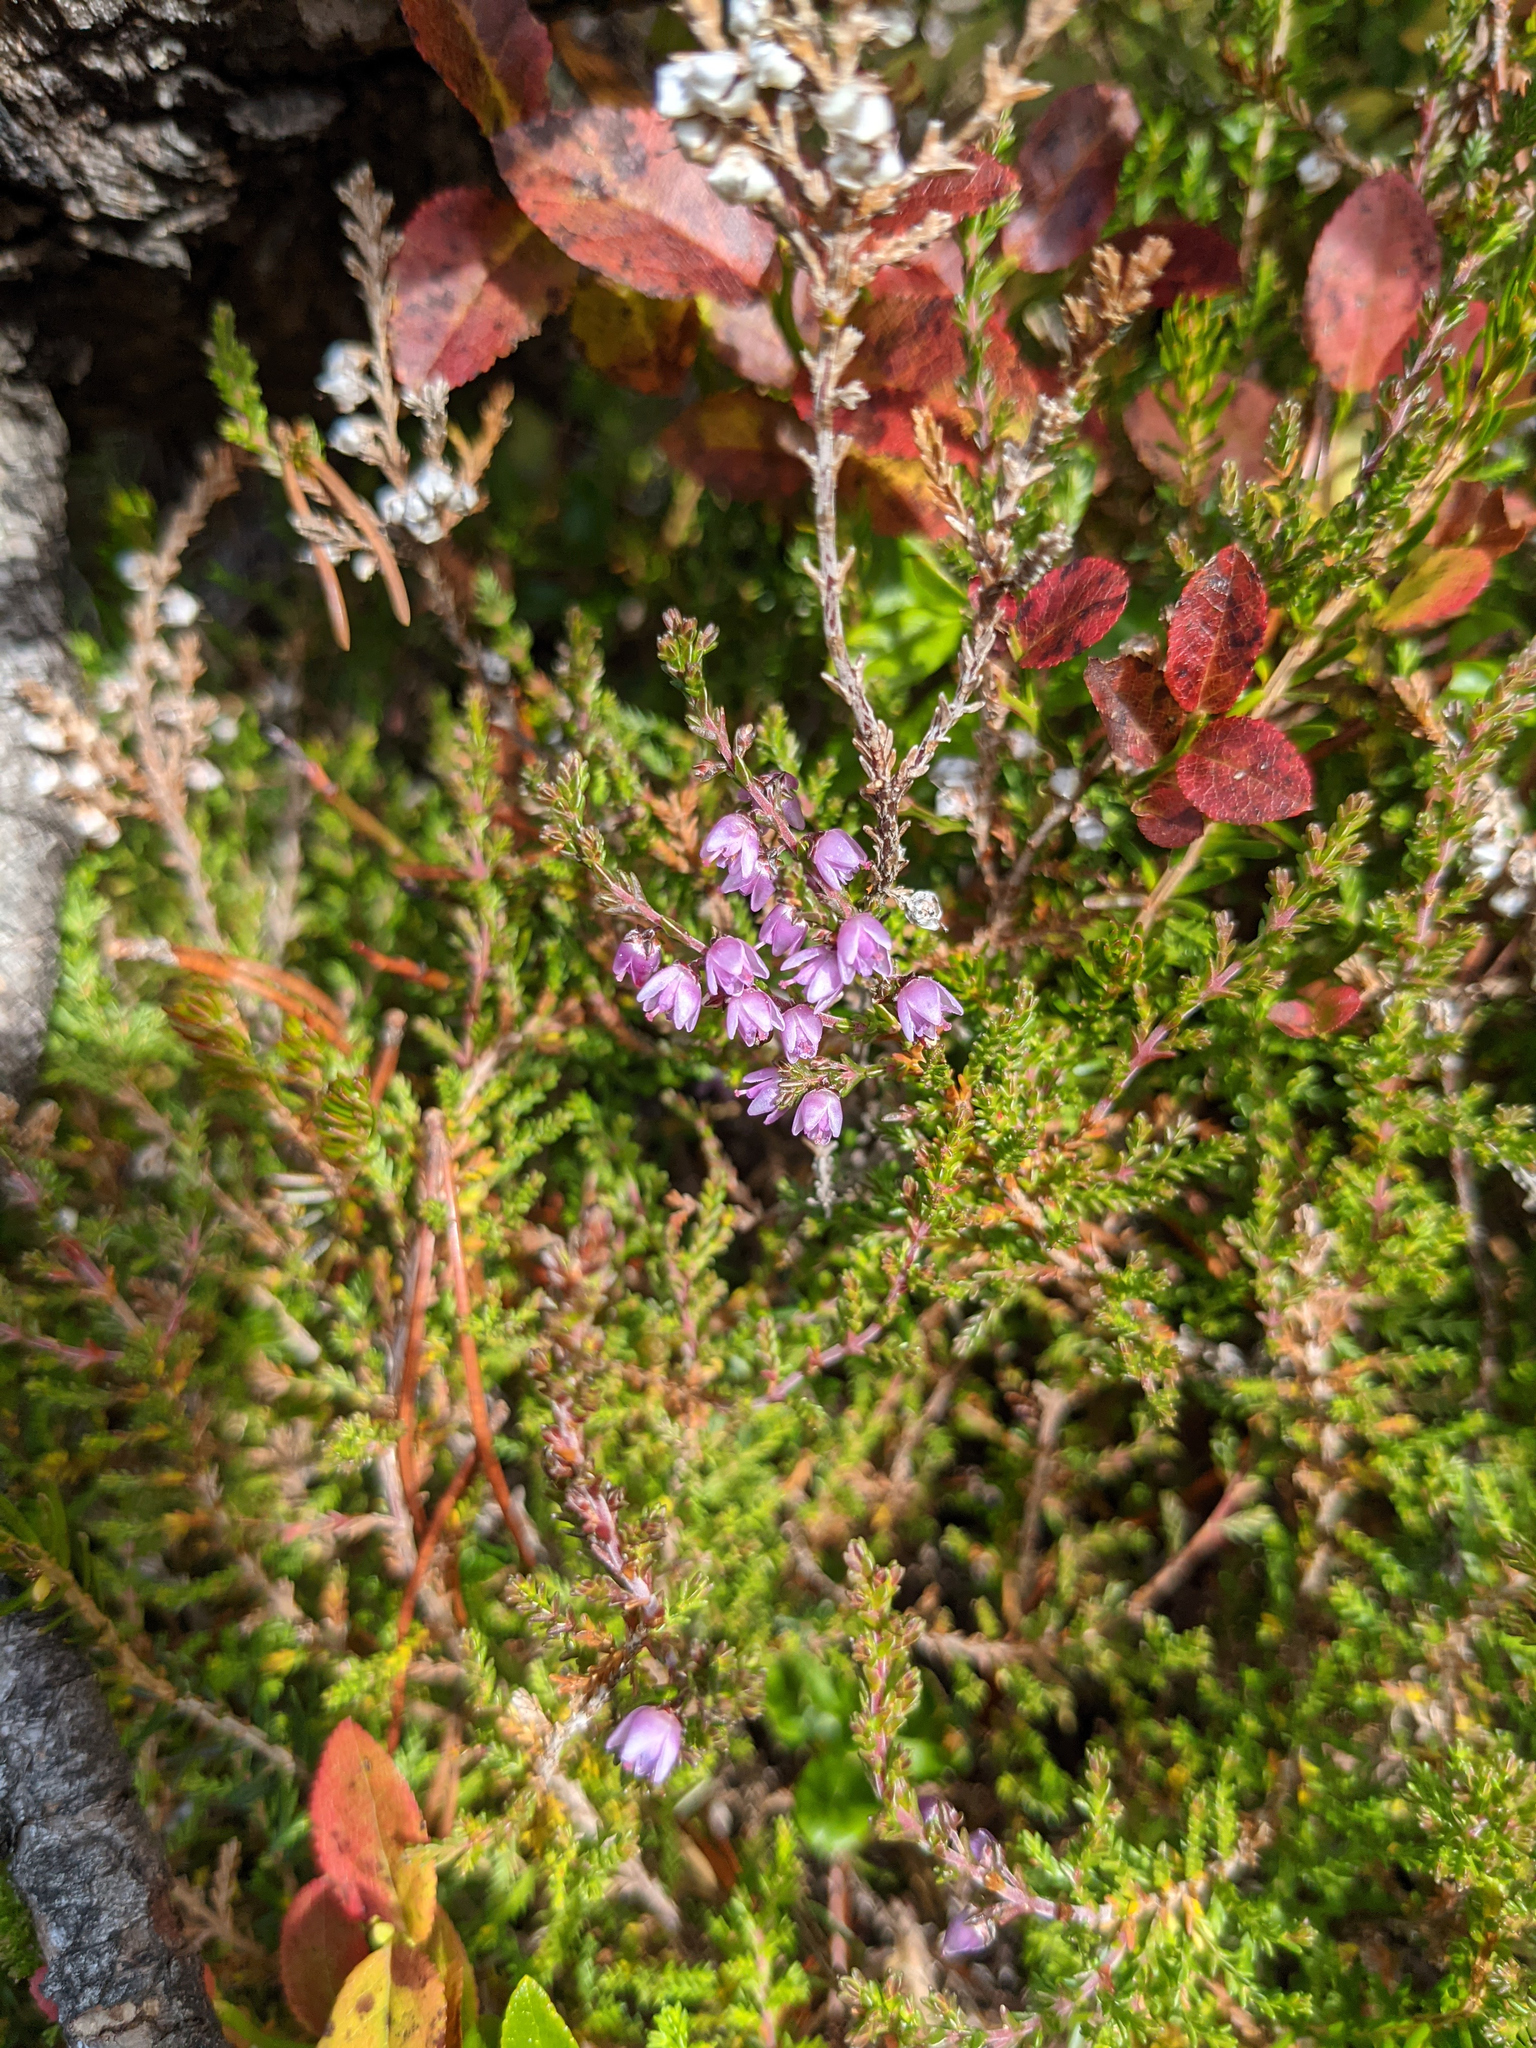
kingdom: Plantae
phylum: Tracheophyta
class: Magnoliopsida
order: Ericales
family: Ericaceae
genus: Calluna
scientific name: Calluna vulgaris
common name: Heather
